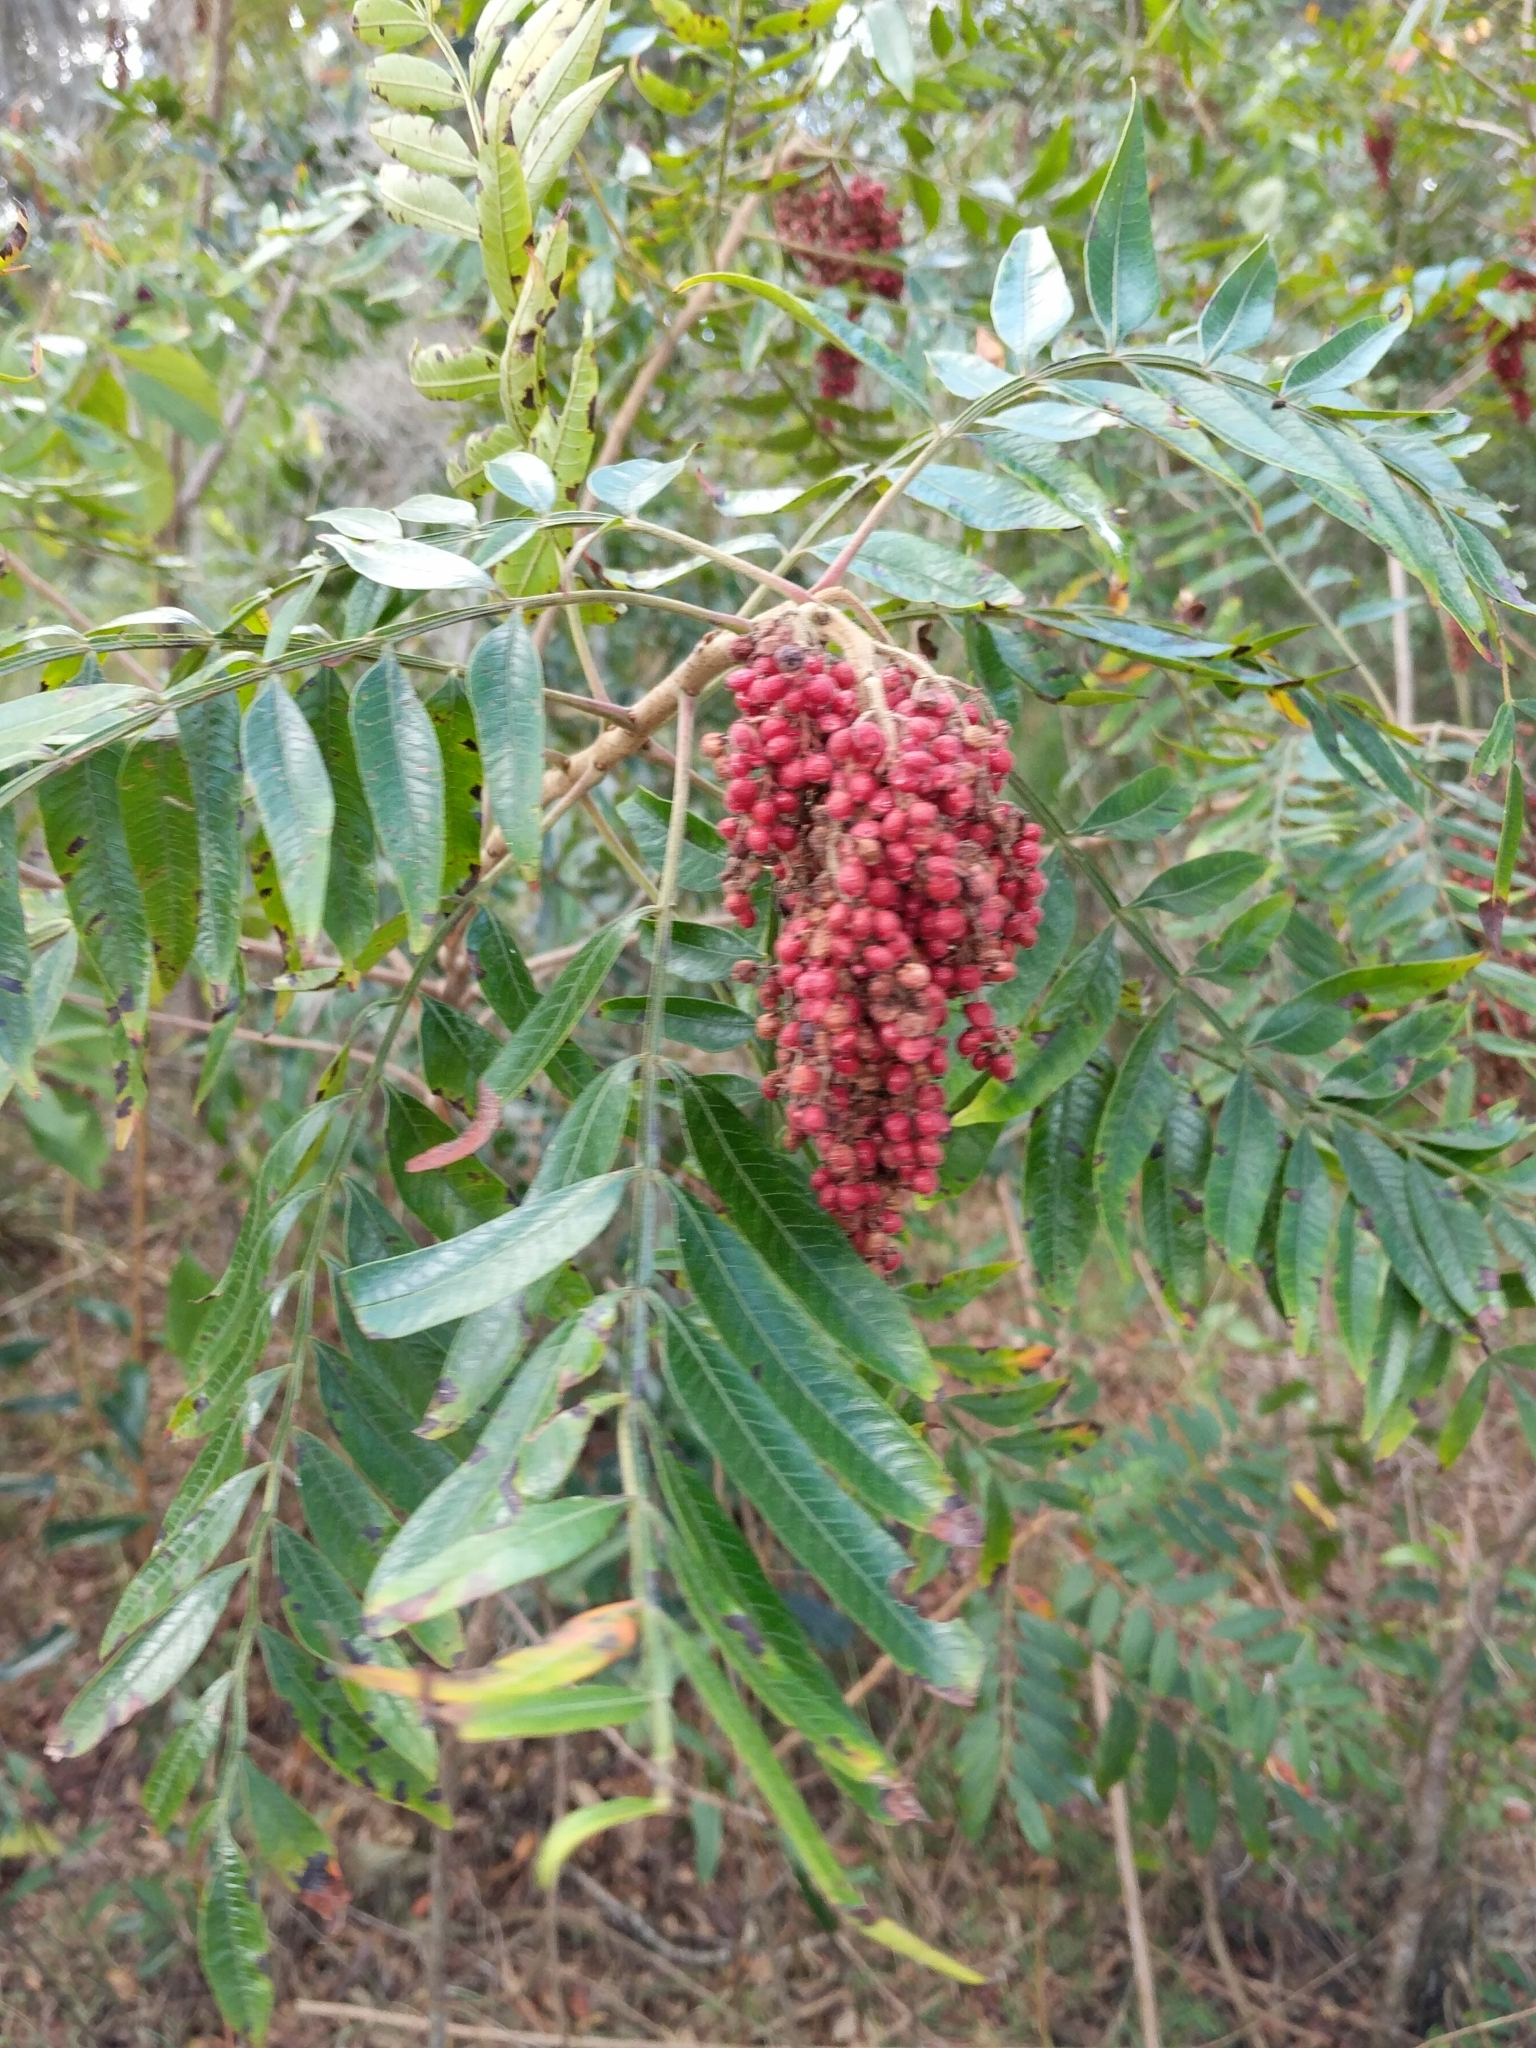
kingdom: Plantae
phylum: Tracheophyta
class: Magnoliopsida
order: Sapindales
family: Anacardiaceae
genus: Rhus
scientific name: Rhus copallina
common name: Shining sumac
